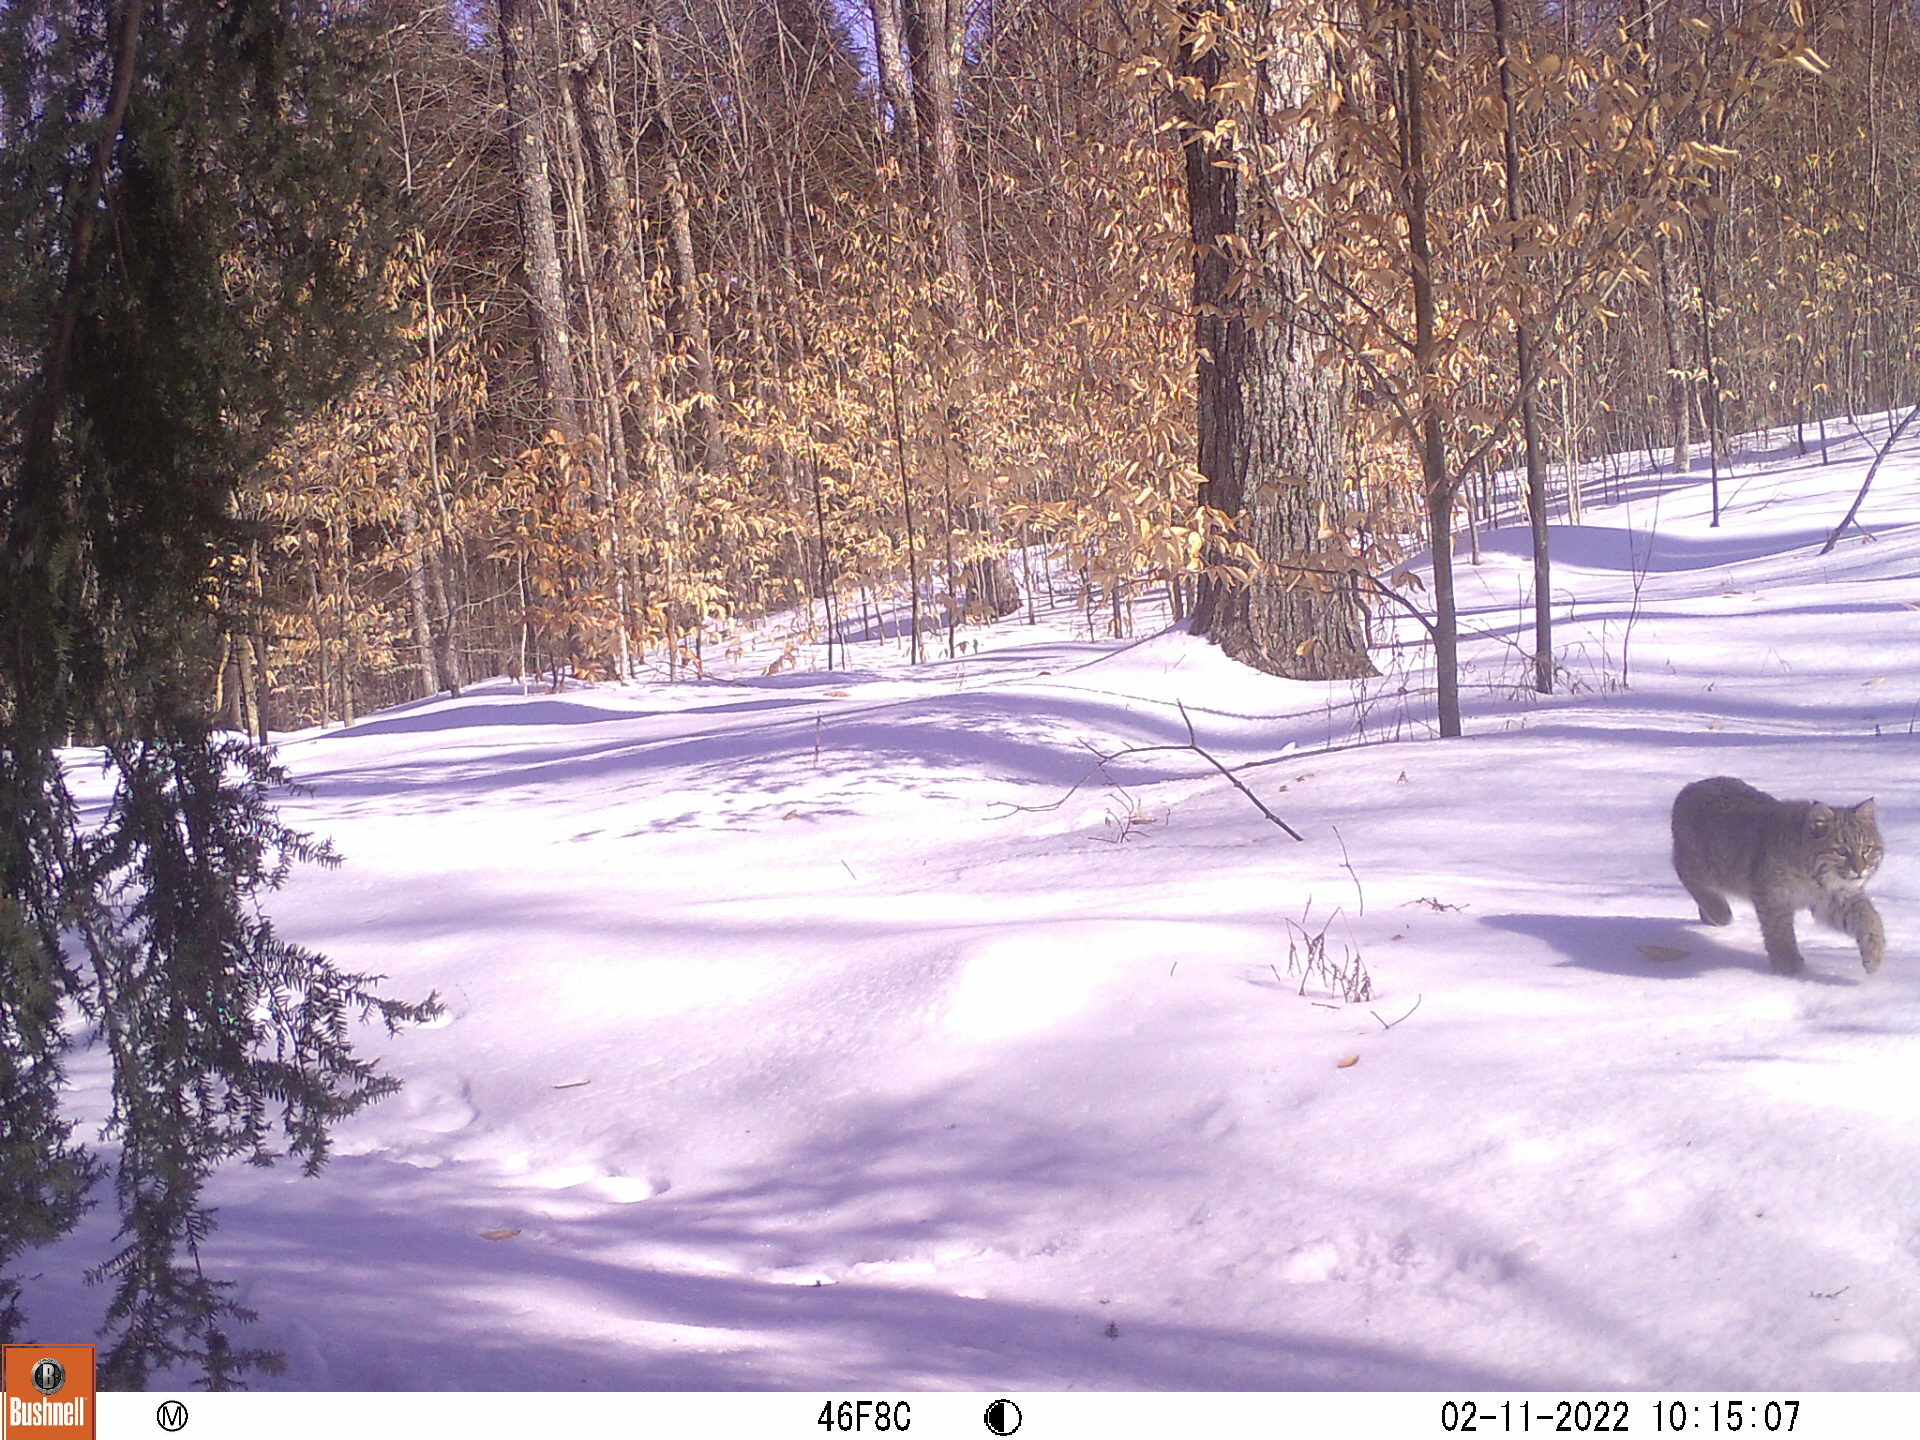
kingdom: Animalia
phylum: Chordata
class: Mammalia
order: Carnivora
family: Felidae
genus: Lynx
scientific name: Lynx rufus
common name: Bobcat
